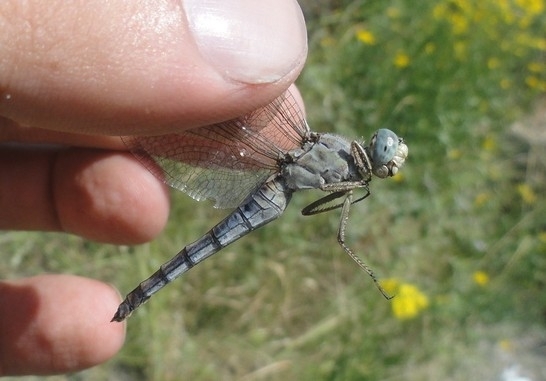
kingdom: Animalia
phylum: Arthropoda
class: Insecta
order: Odonata
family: Libellulidae
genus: Orthetrum
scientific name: Orthetrum brunneum
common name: Southern skimmer
